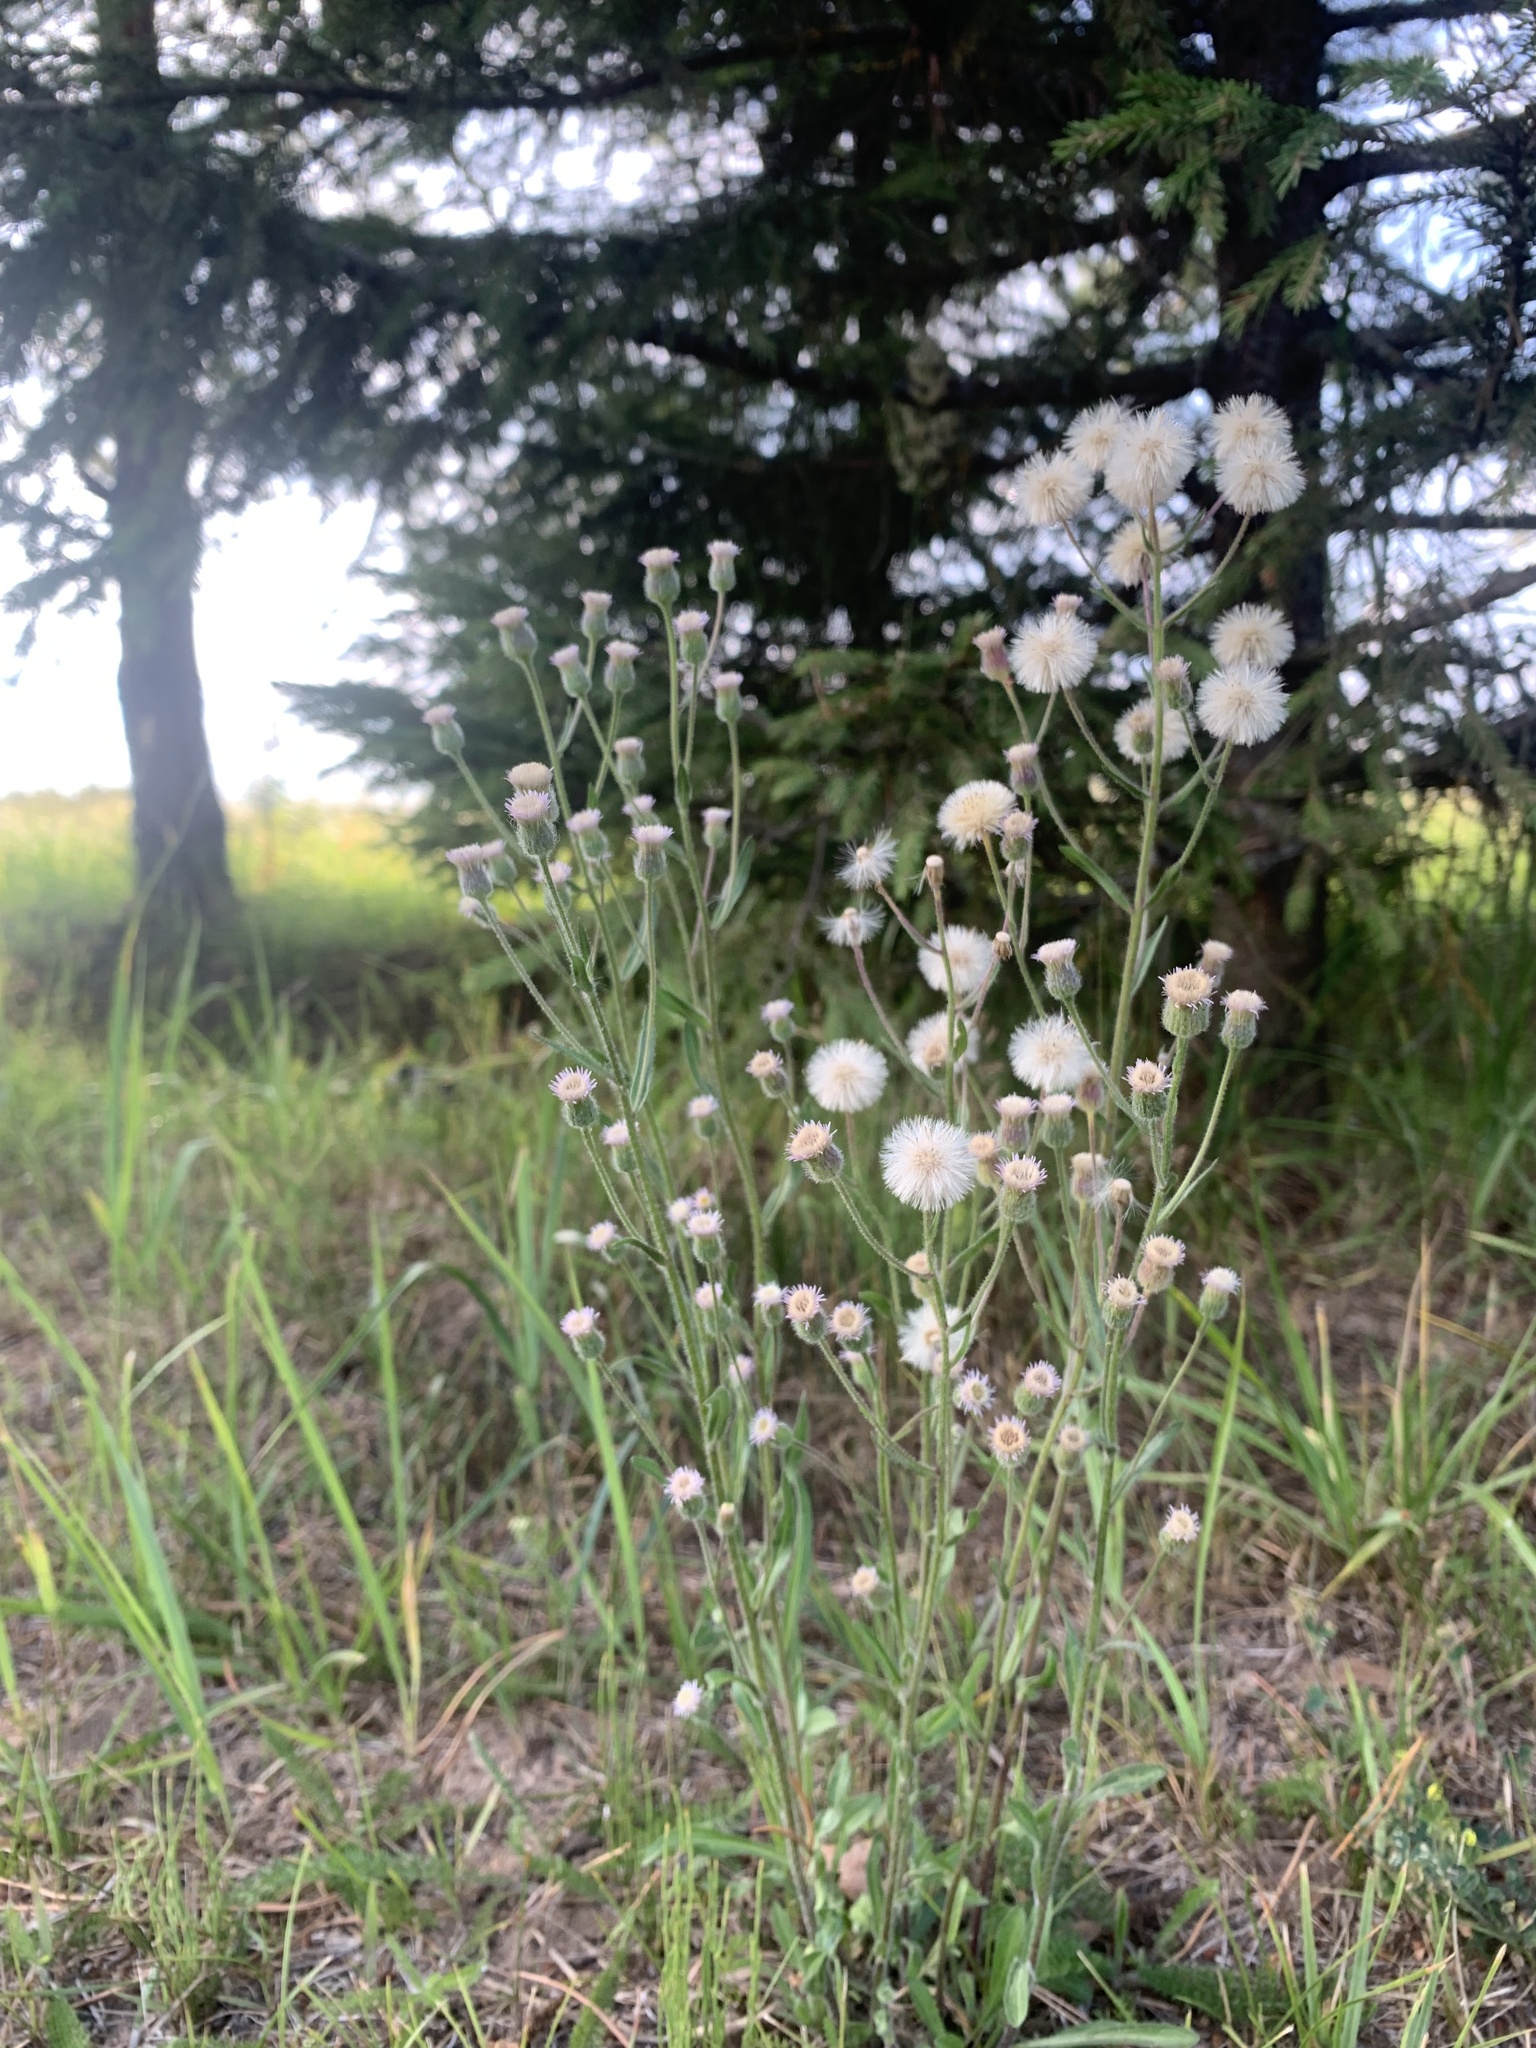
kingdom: Plantae
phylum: Tracheophyta
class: Magnoliopsida
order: Asterales
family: Asteraceae
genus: Erigeron
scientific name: Erigeron acris
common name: Blue fleabane
